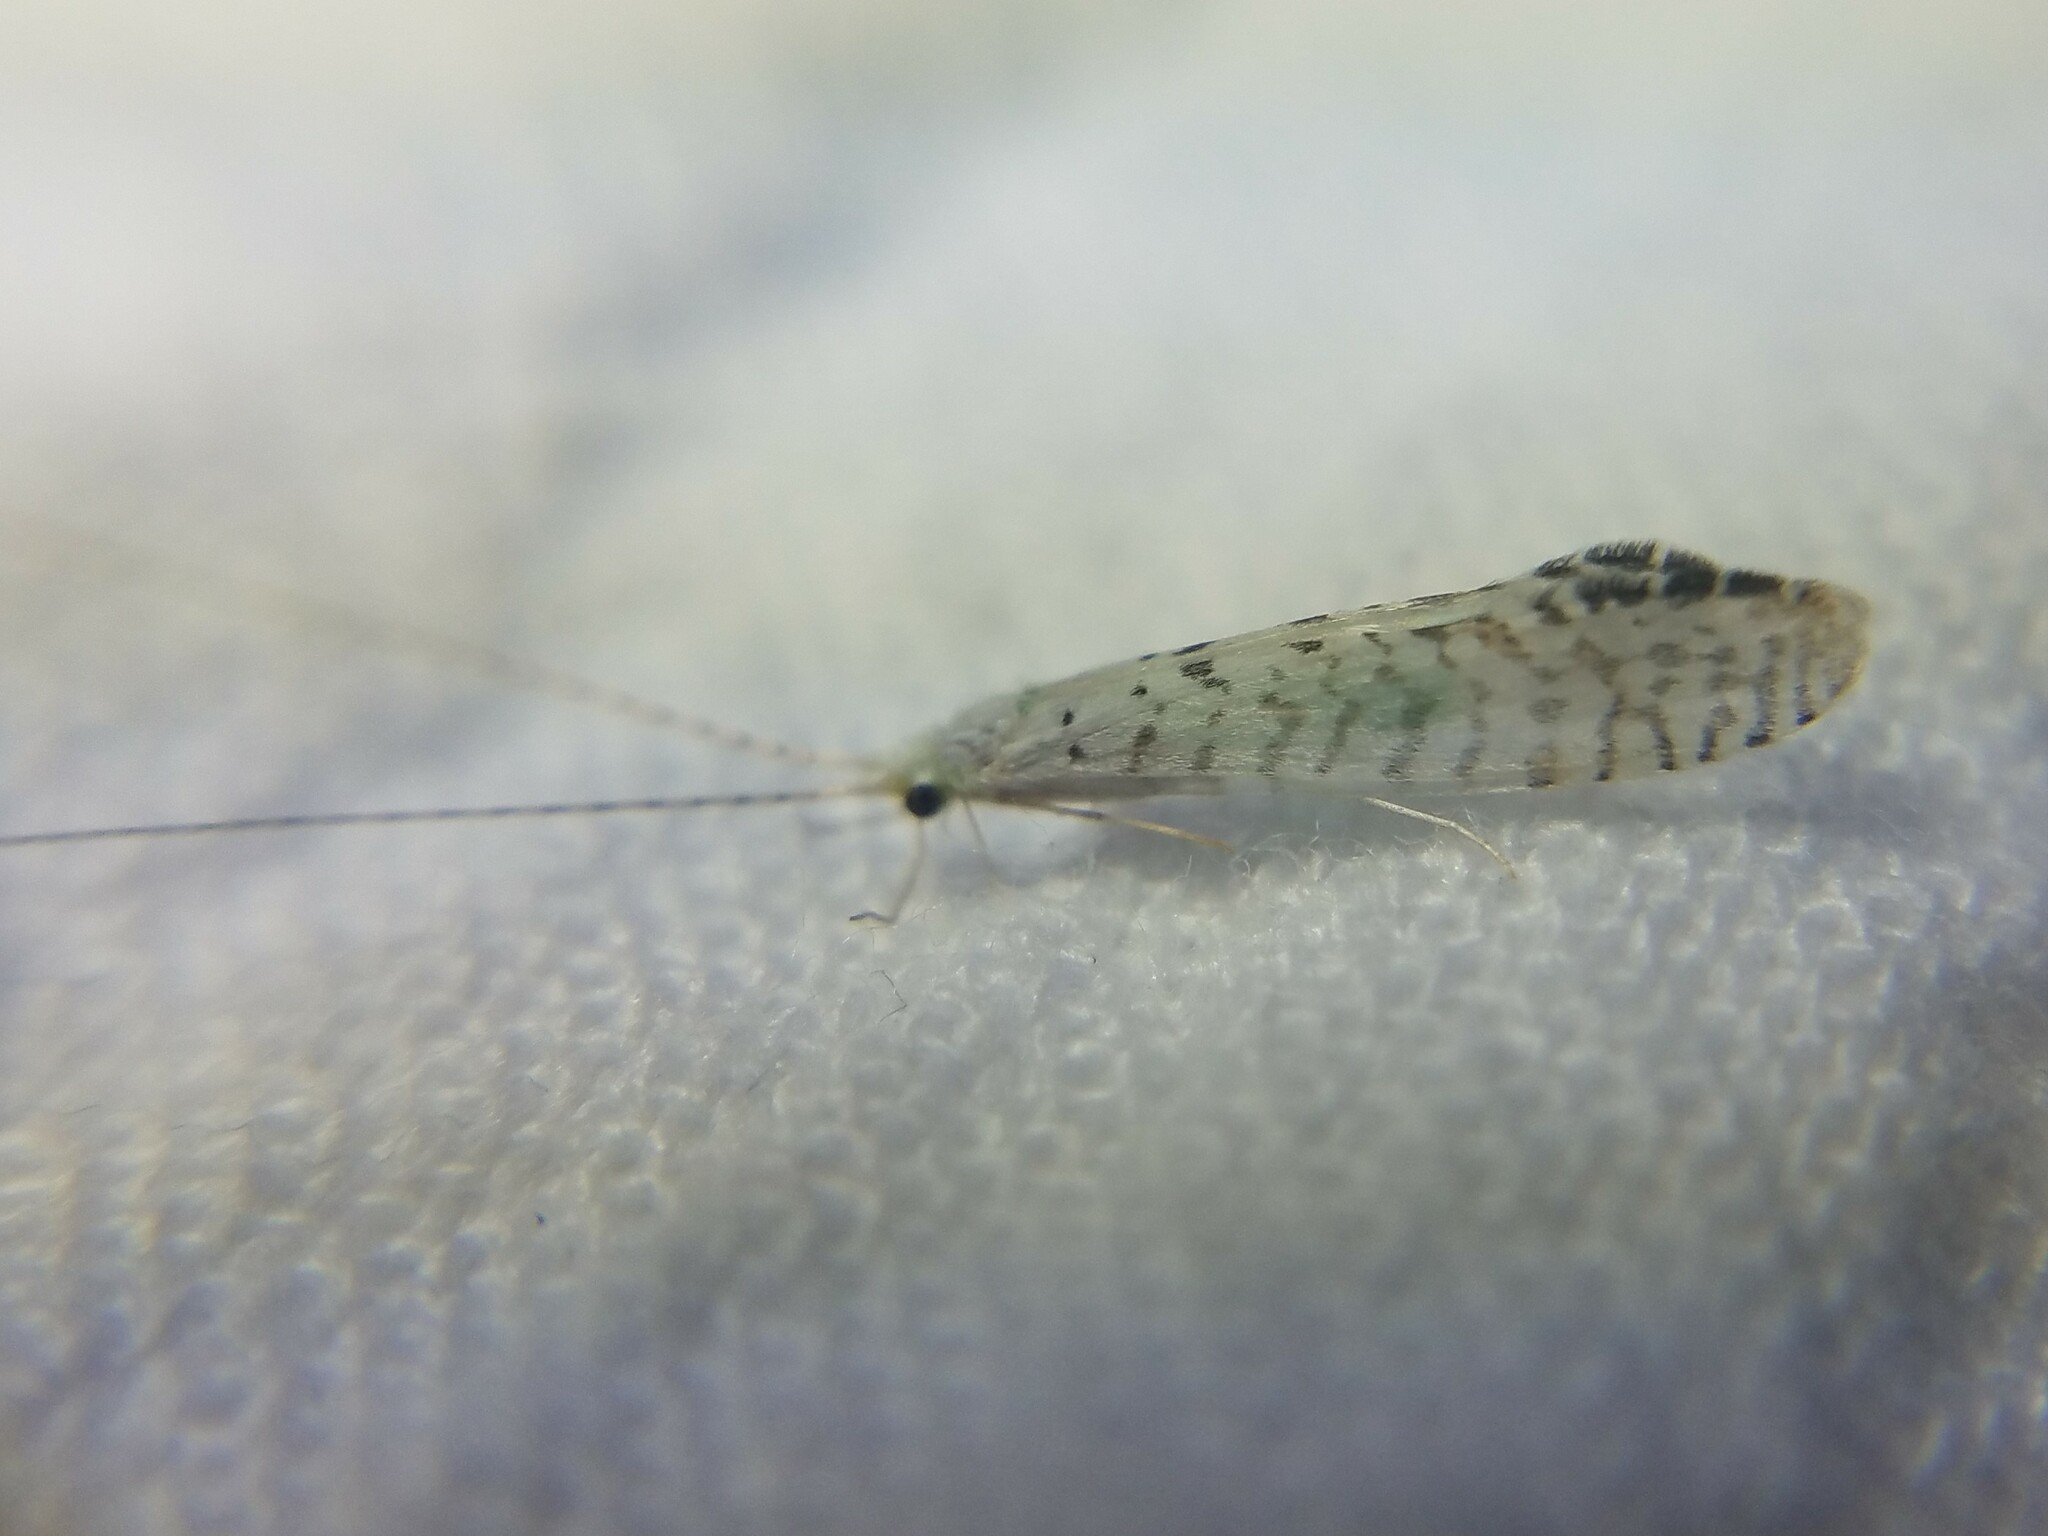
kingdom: Animalia
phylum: Arthropoda
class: Insecta
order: Trichoptera
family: Leptoceridae
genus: Nectopsyche
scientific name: Nectopsyche candida
